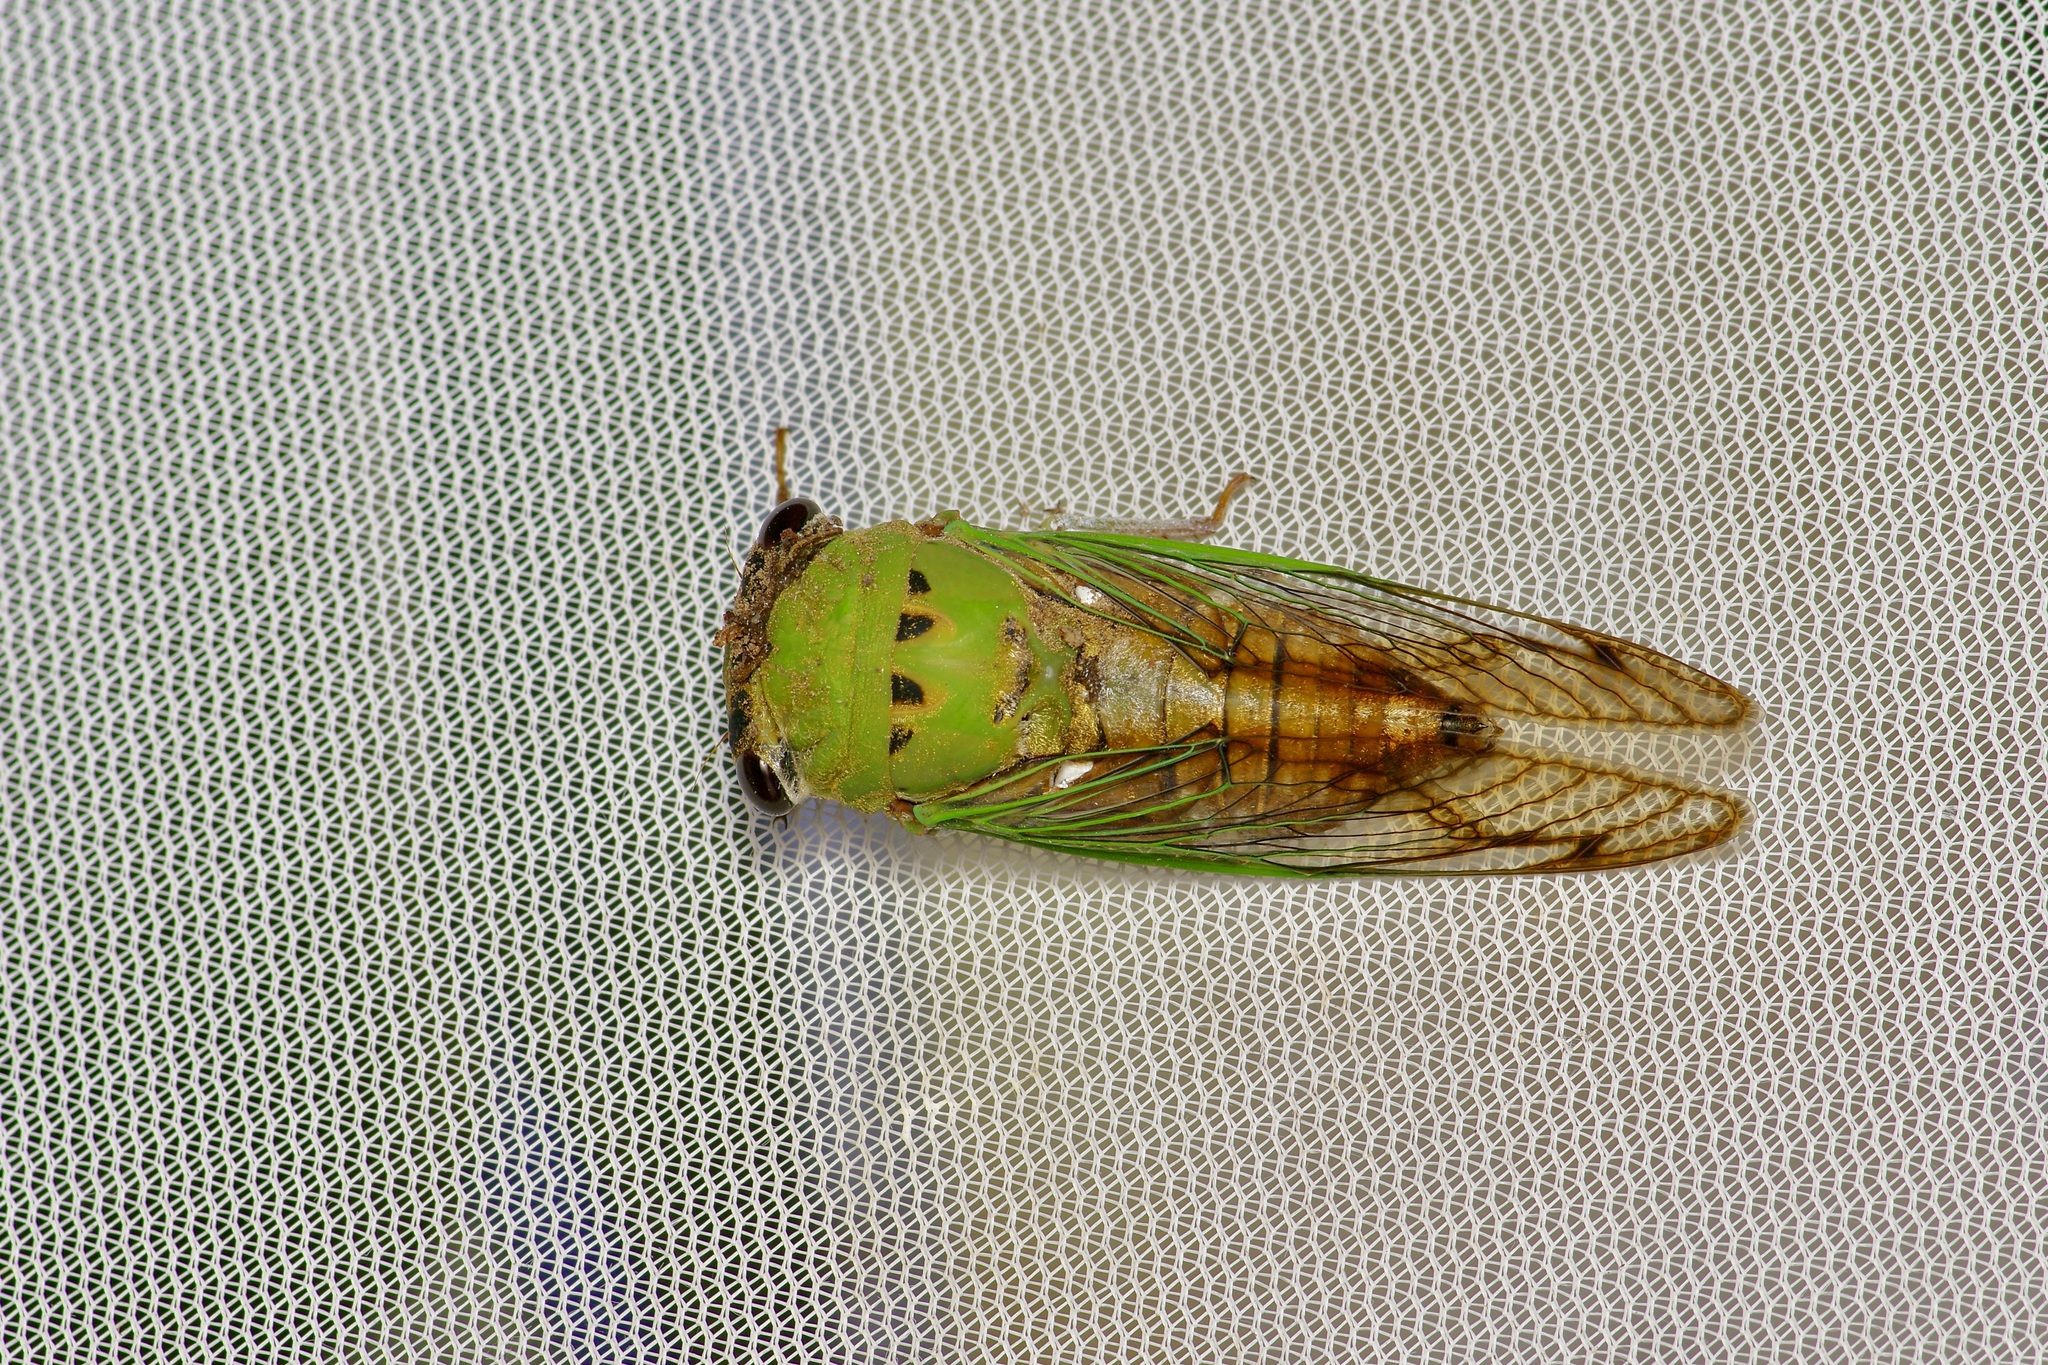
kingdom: Animalia
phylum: Arthropoda
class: Insecta
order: Hemiptera
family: Cicadidae
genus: Neotibicen
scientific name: Neotibicen superbus
